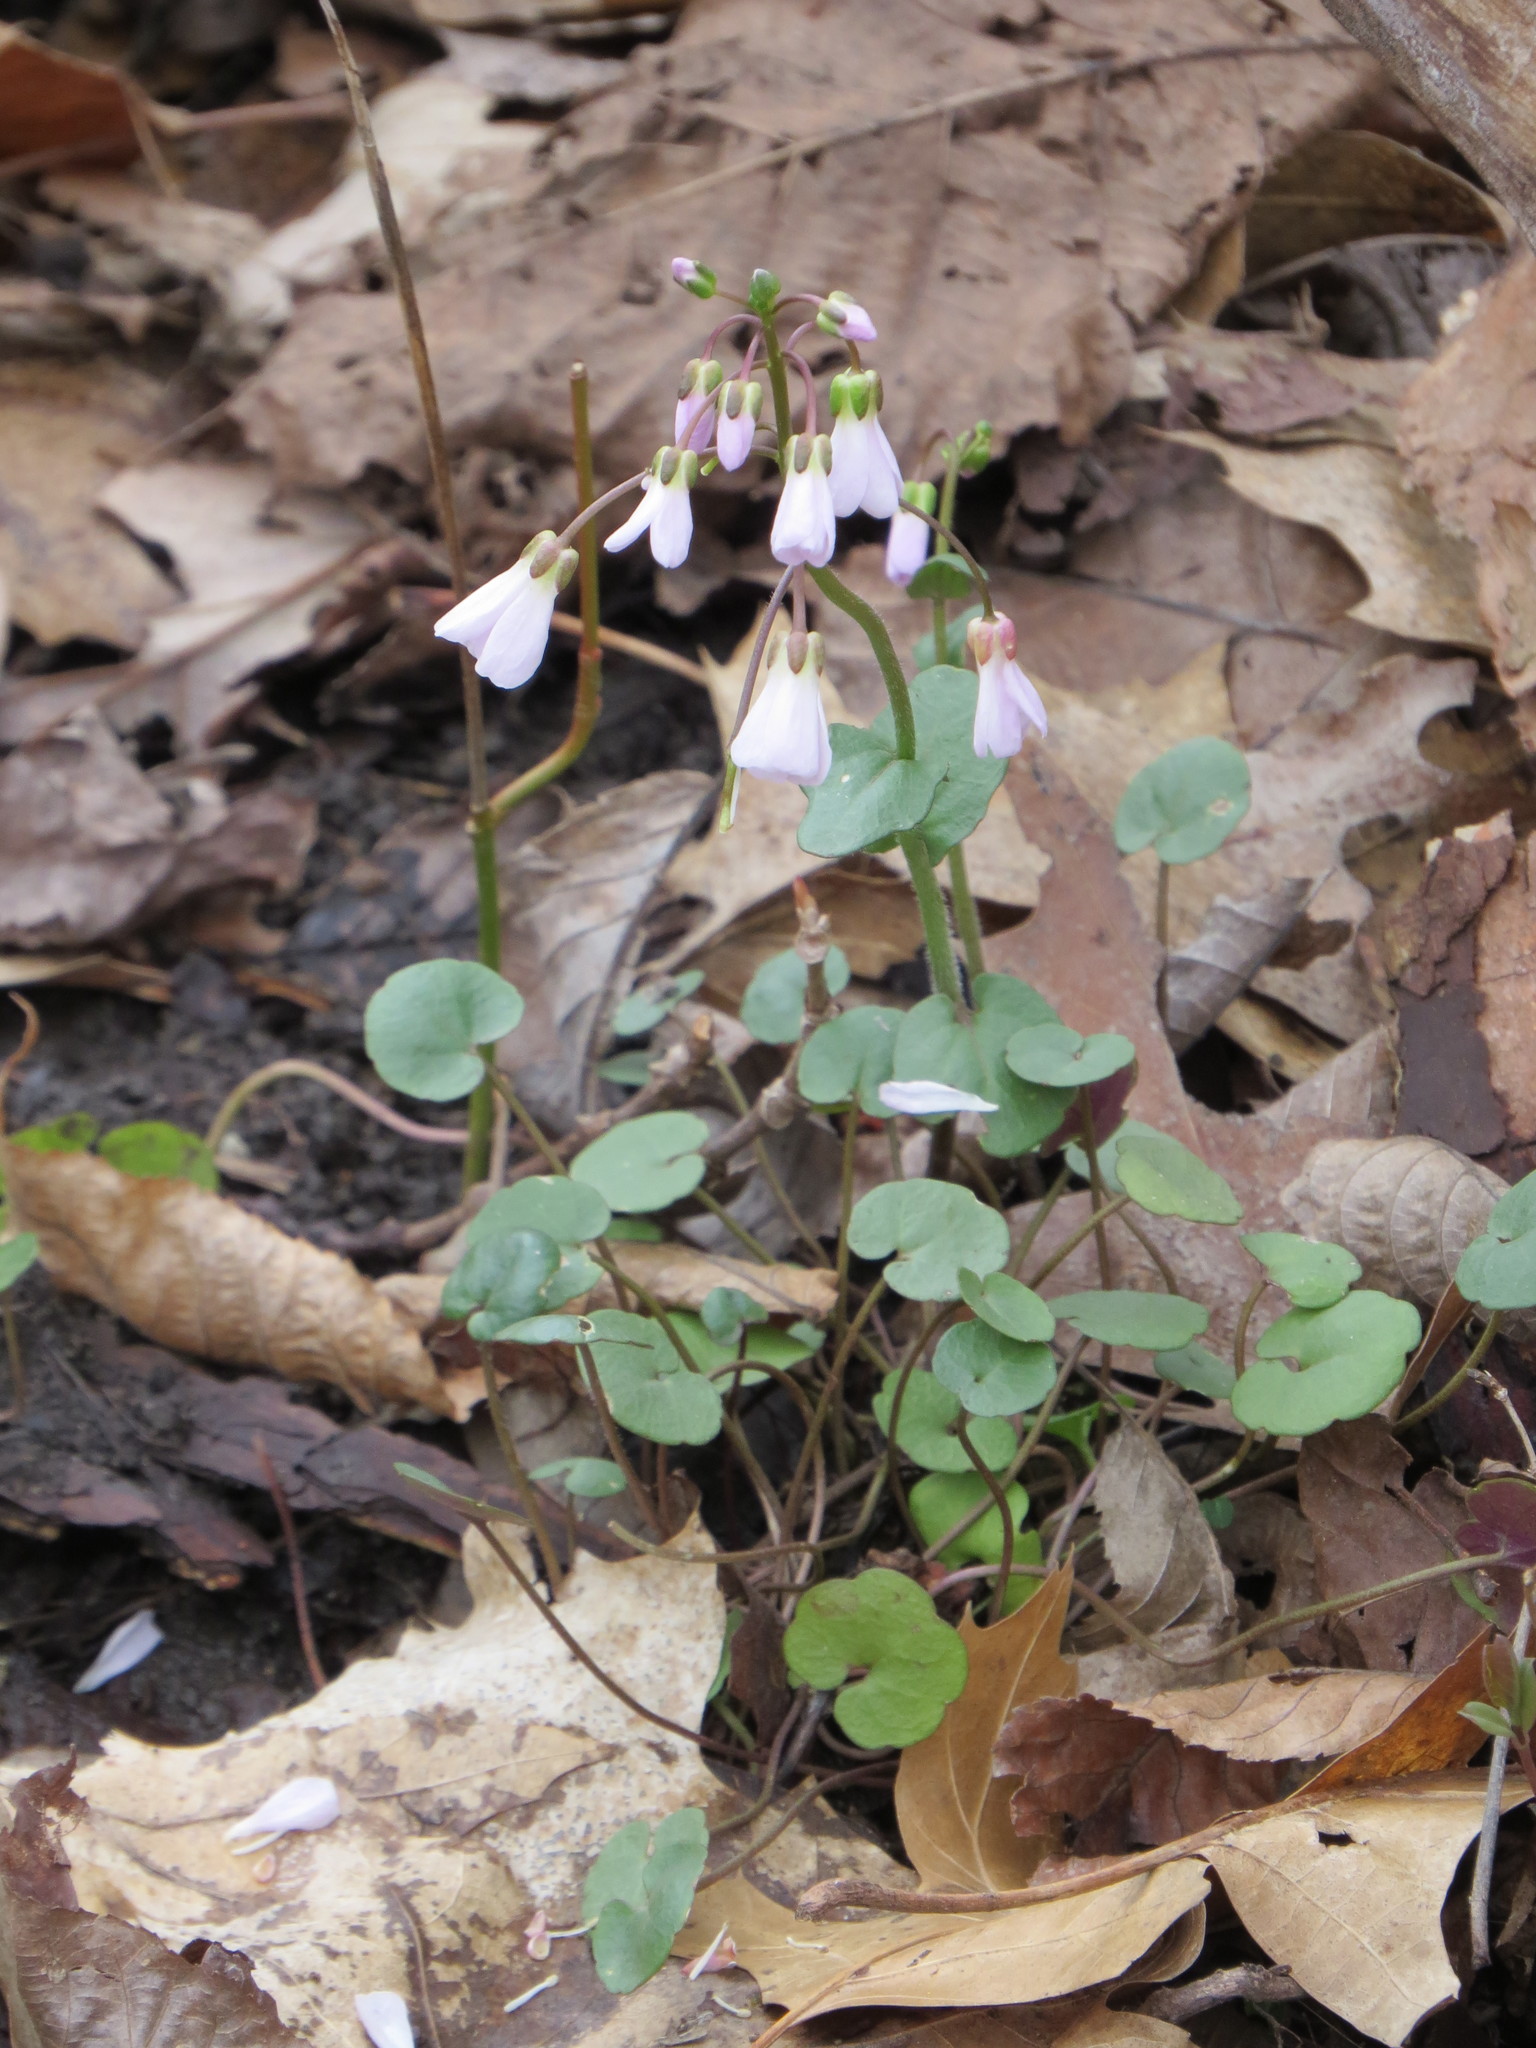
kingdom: Plantae
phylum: Tracheophyta
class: Magnoliopsida
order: Brassicales
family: Brassicaceae
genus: Cardamine
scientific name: Cardamine douglassii
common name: Purple cress
